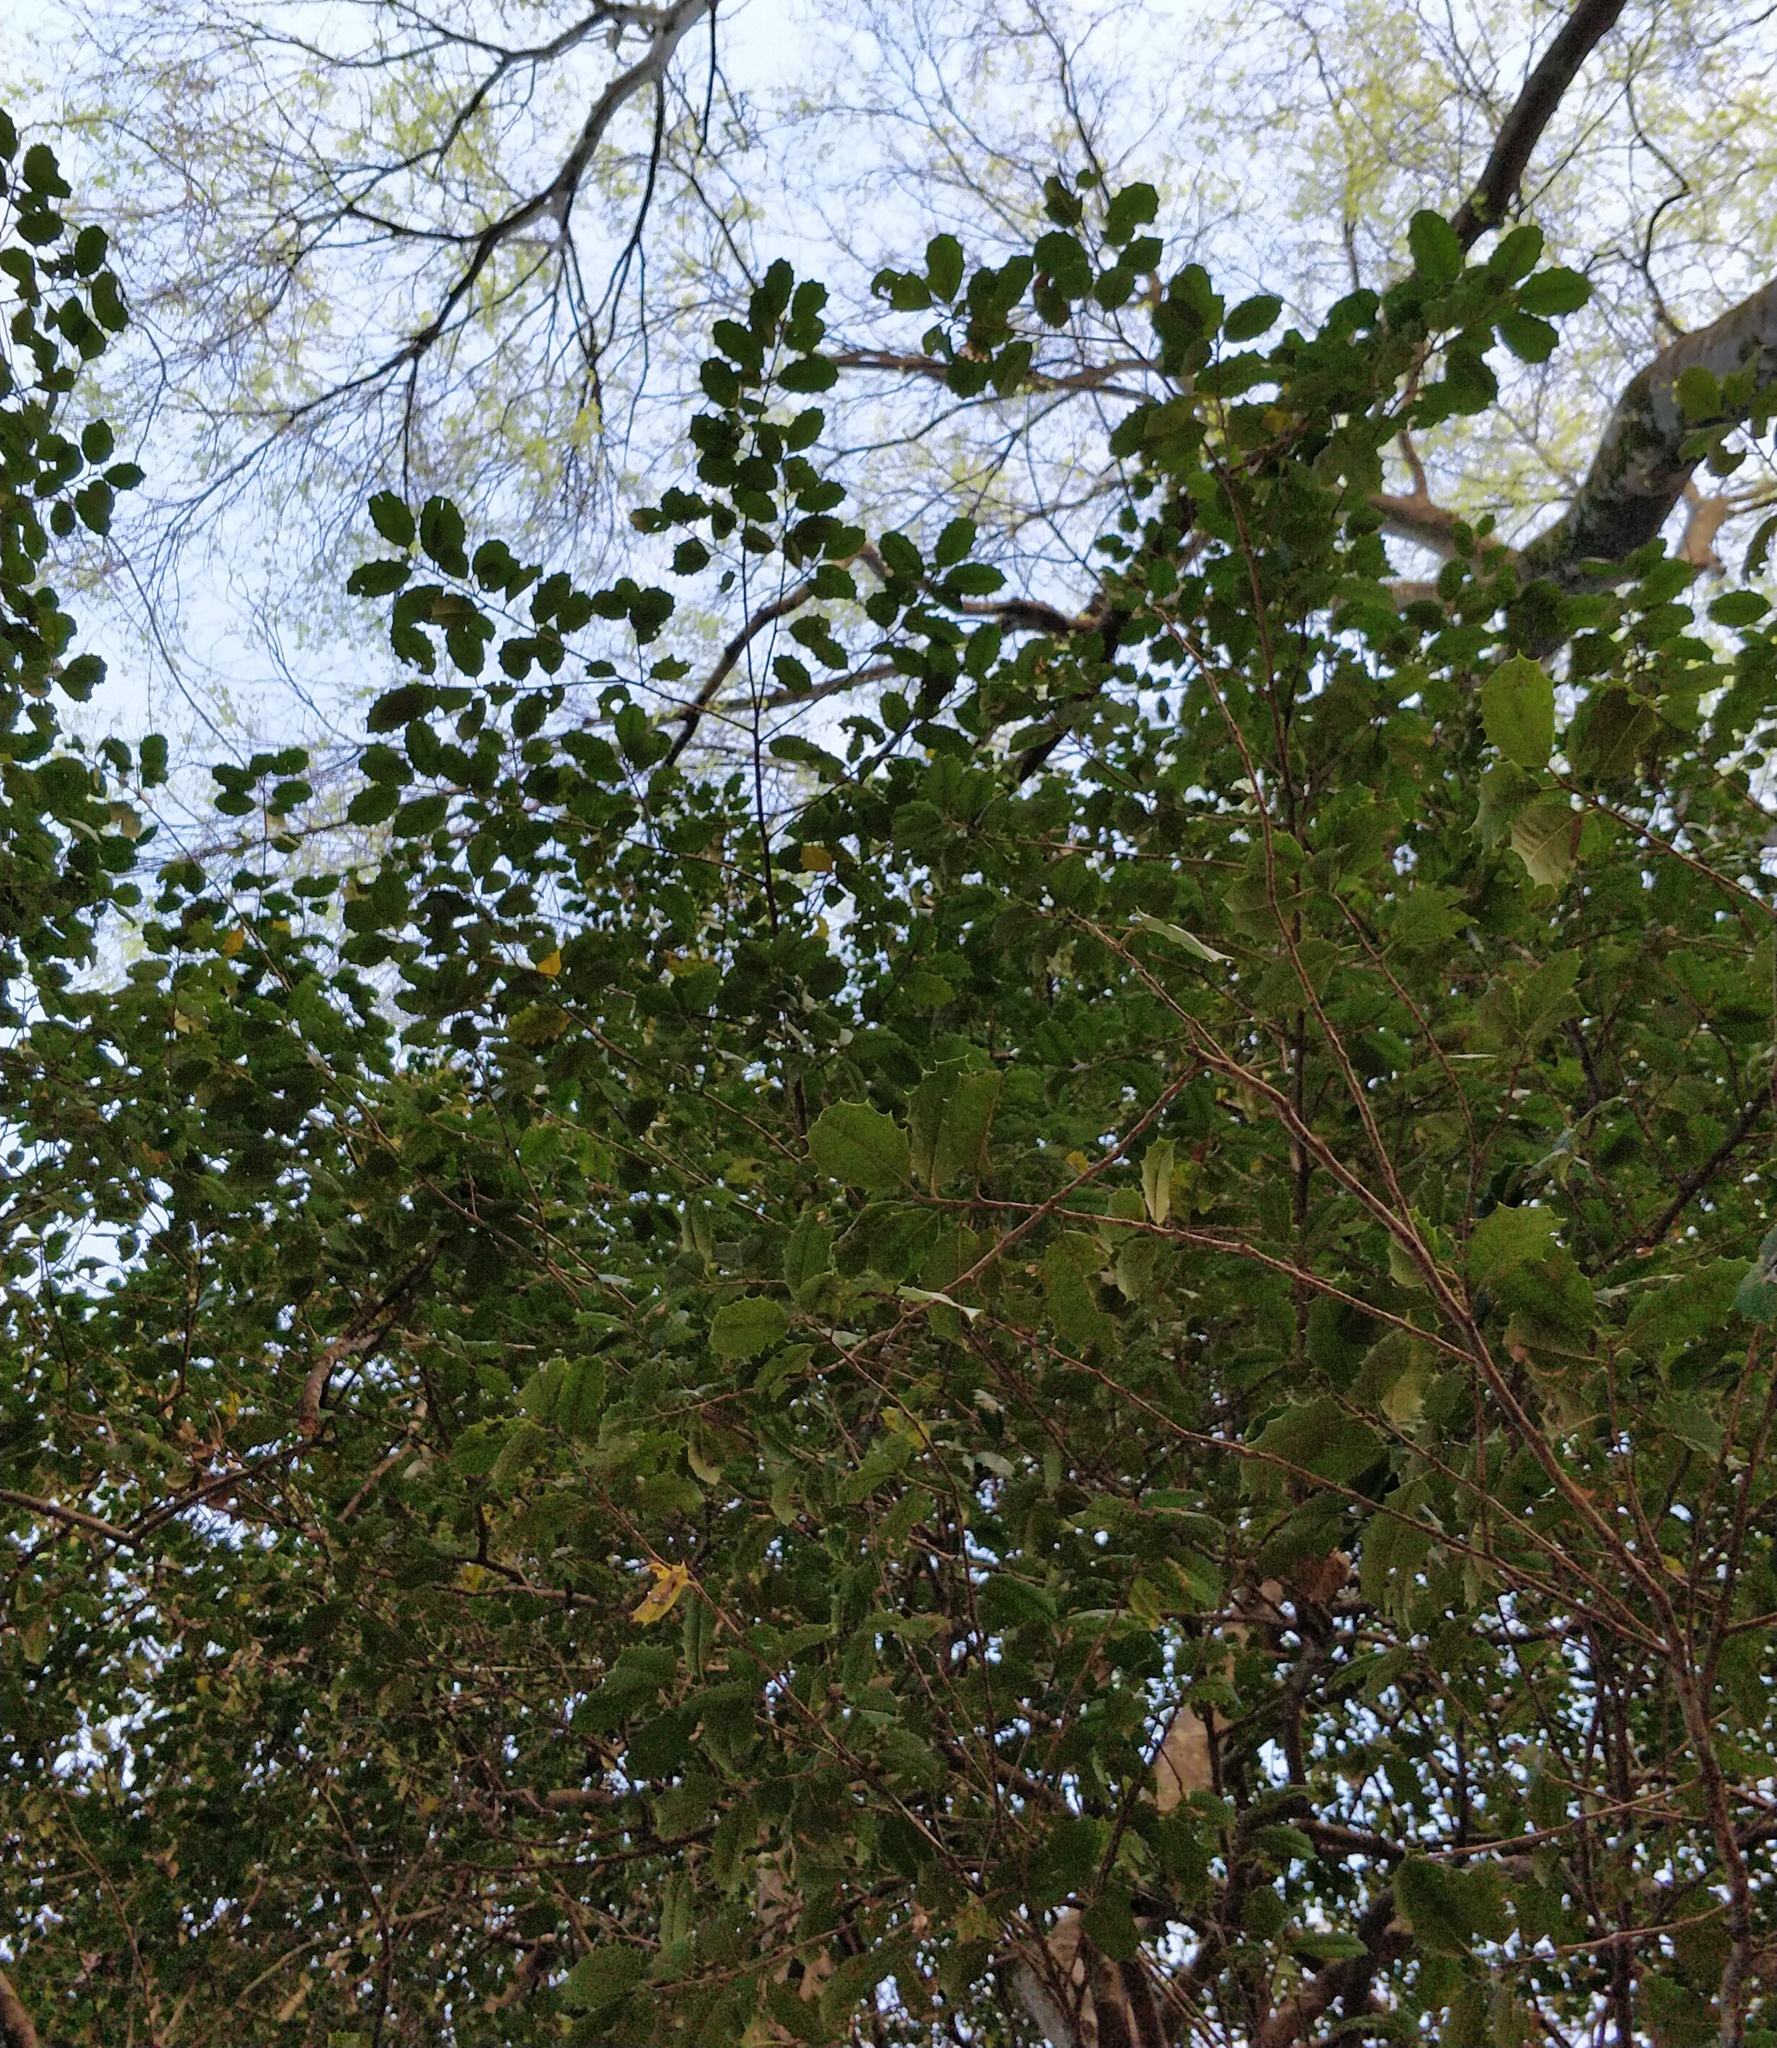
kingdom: Plantae
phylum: Tracheophyta
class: Magnoliopsida
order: Aquifoliales
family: Aquifoliaceae
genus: Ilex
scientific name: Ilex opaca
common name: American holly
